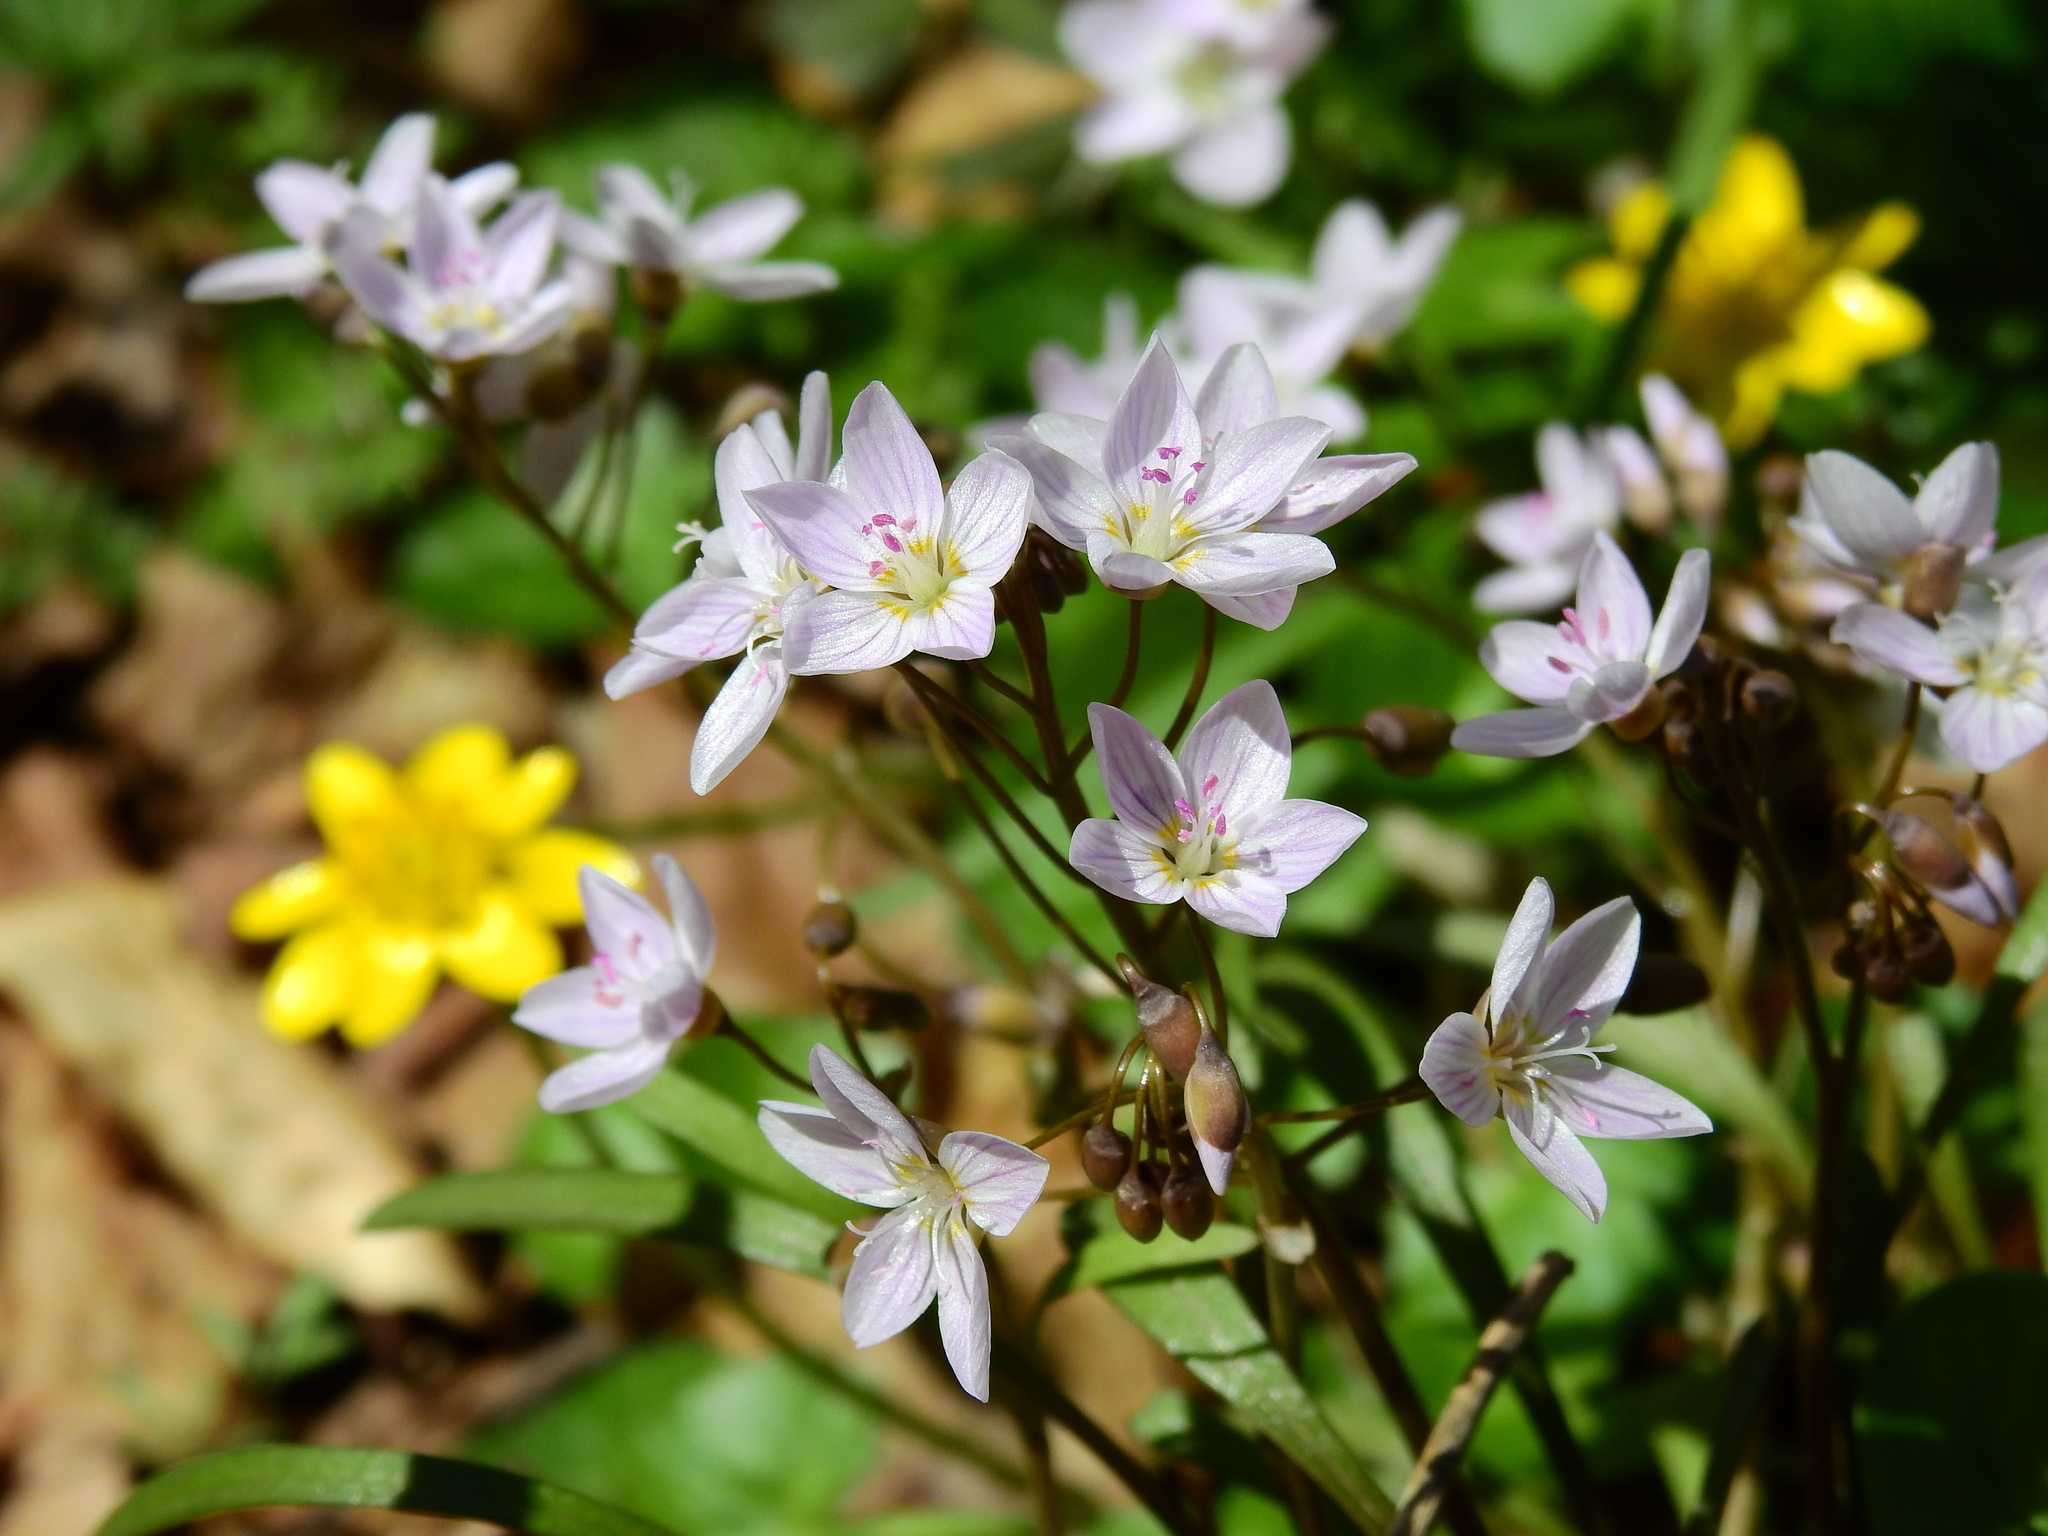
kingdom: Plantae
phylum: Tracheophyta
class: Magnoliopsida
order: Caryophyllales
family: Montiaceae
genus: Claytonia
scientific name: Claytonia virginica
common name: Virginia springbeauty
